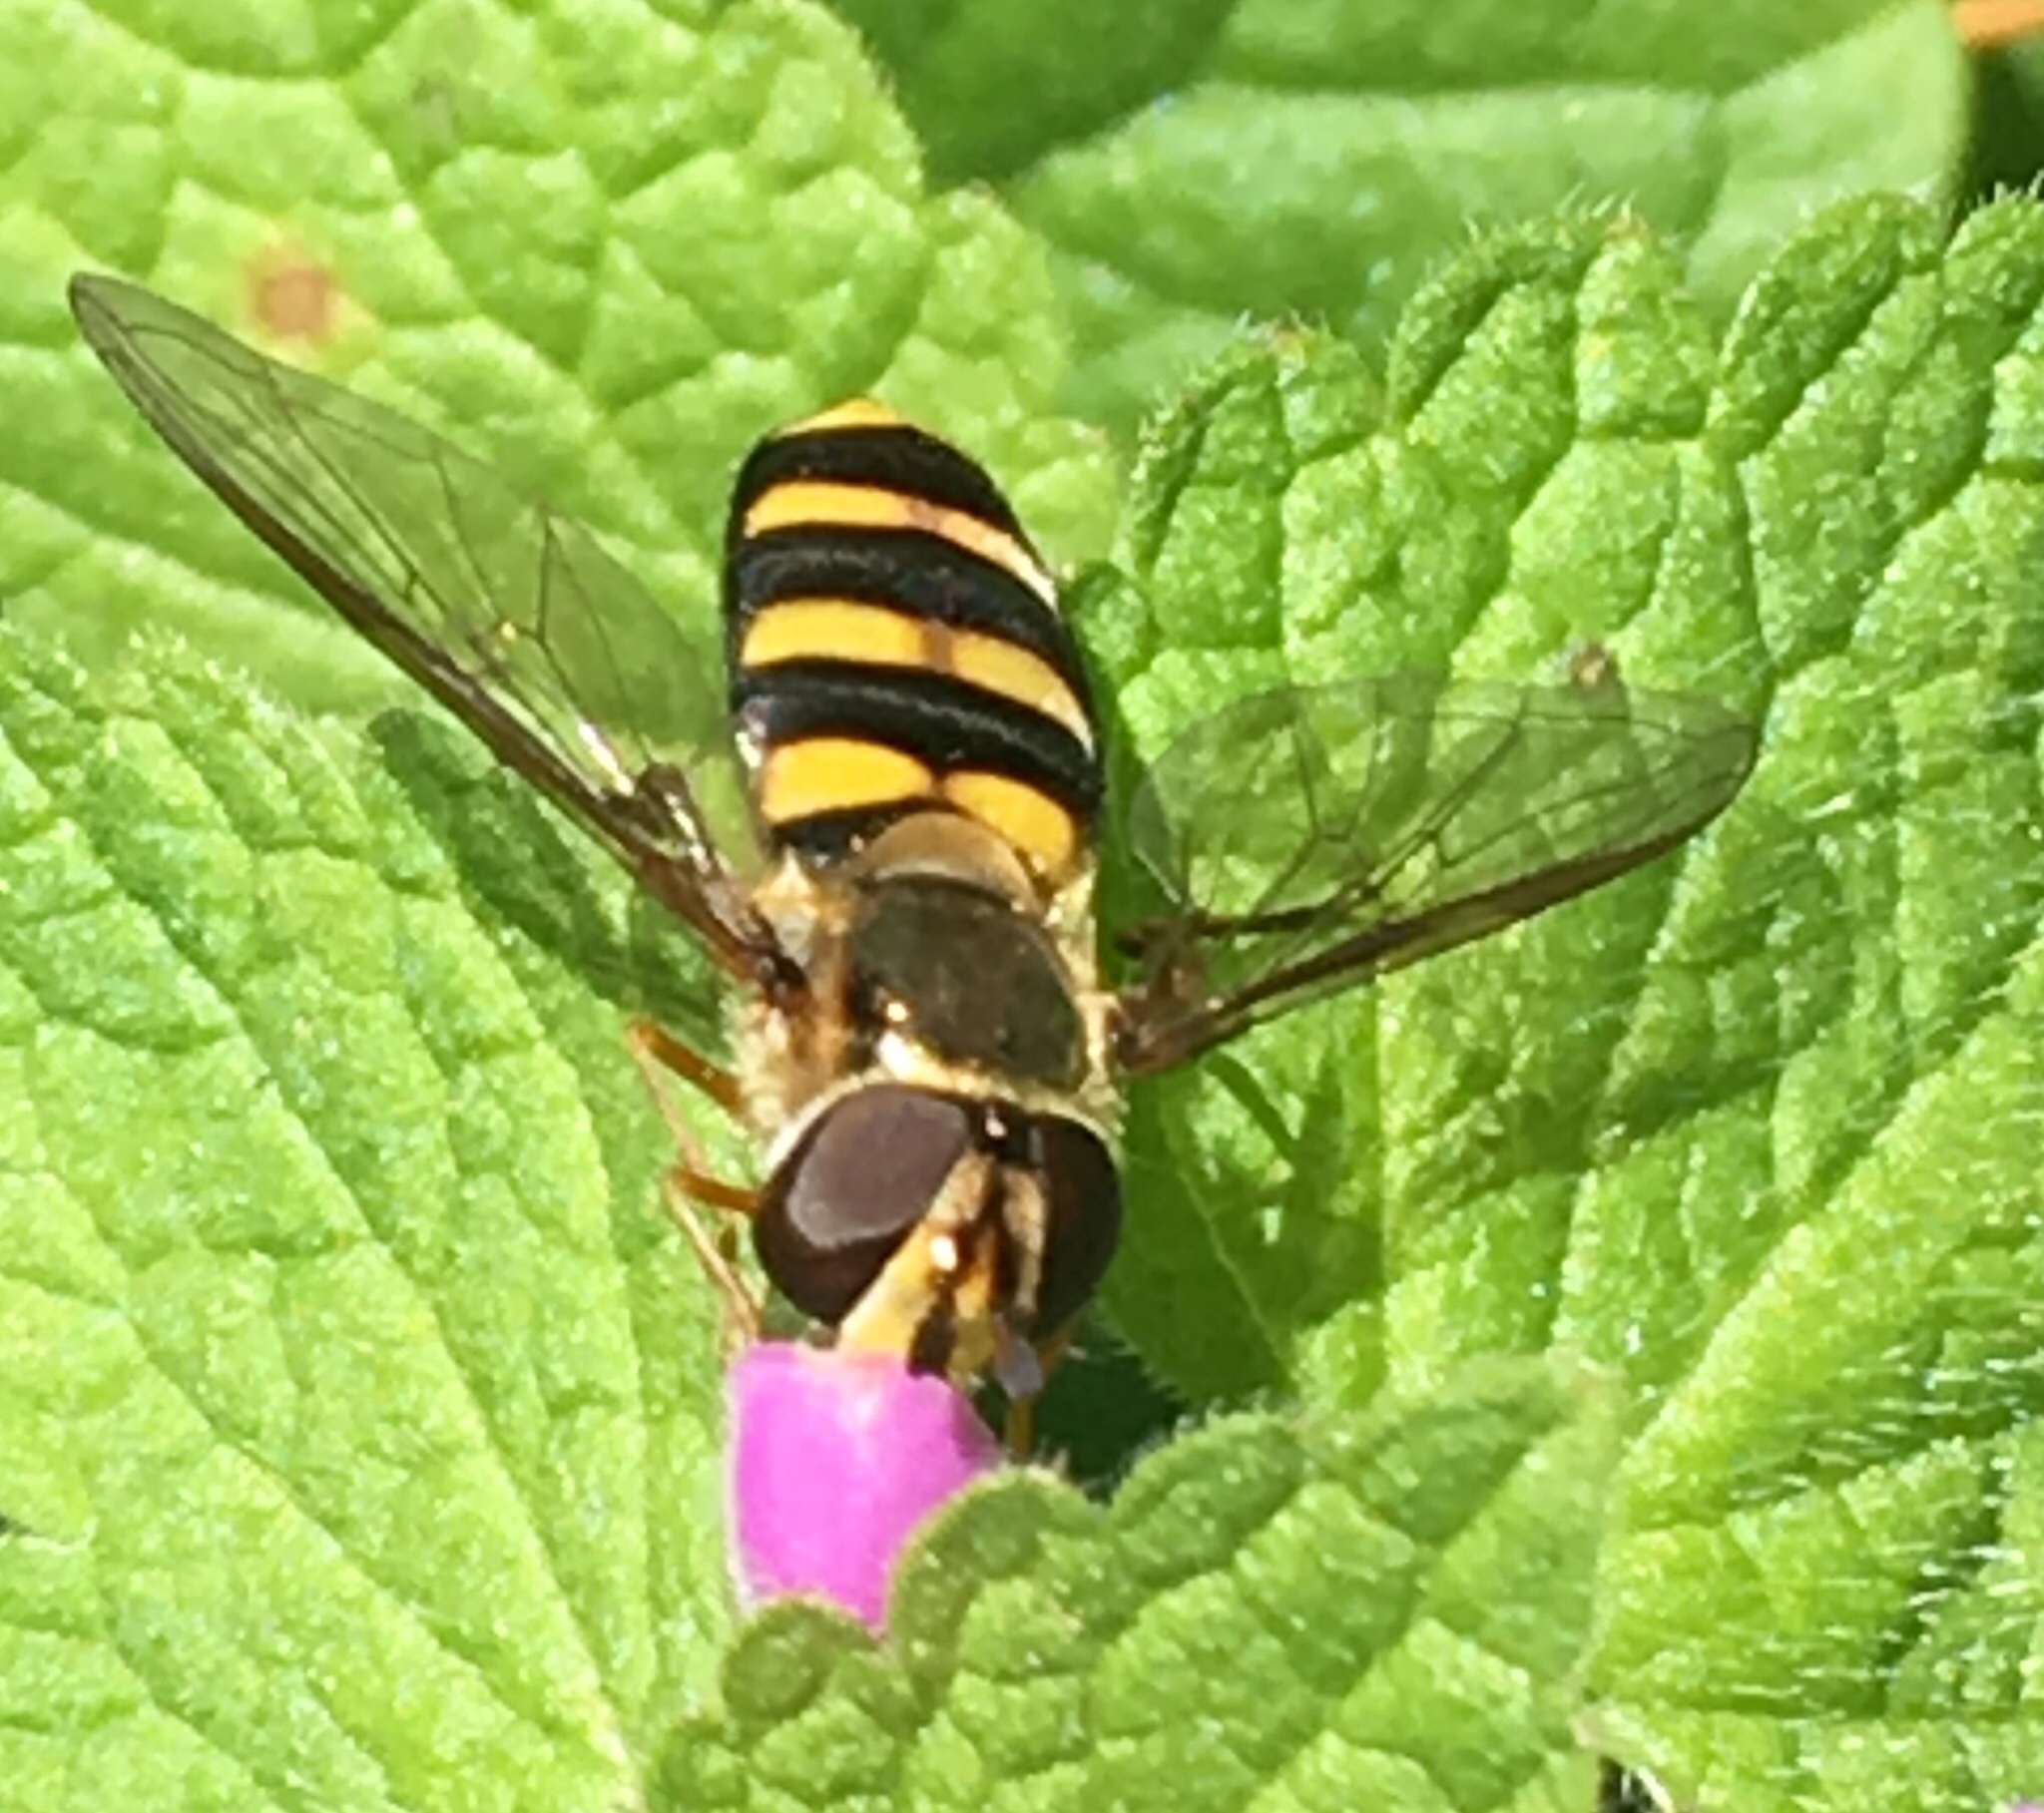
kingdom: Animalia
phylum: Arthropoda
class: Insecta
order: Diptera
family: Syrphidae
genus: Eupeodes
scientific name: Eupeodes
